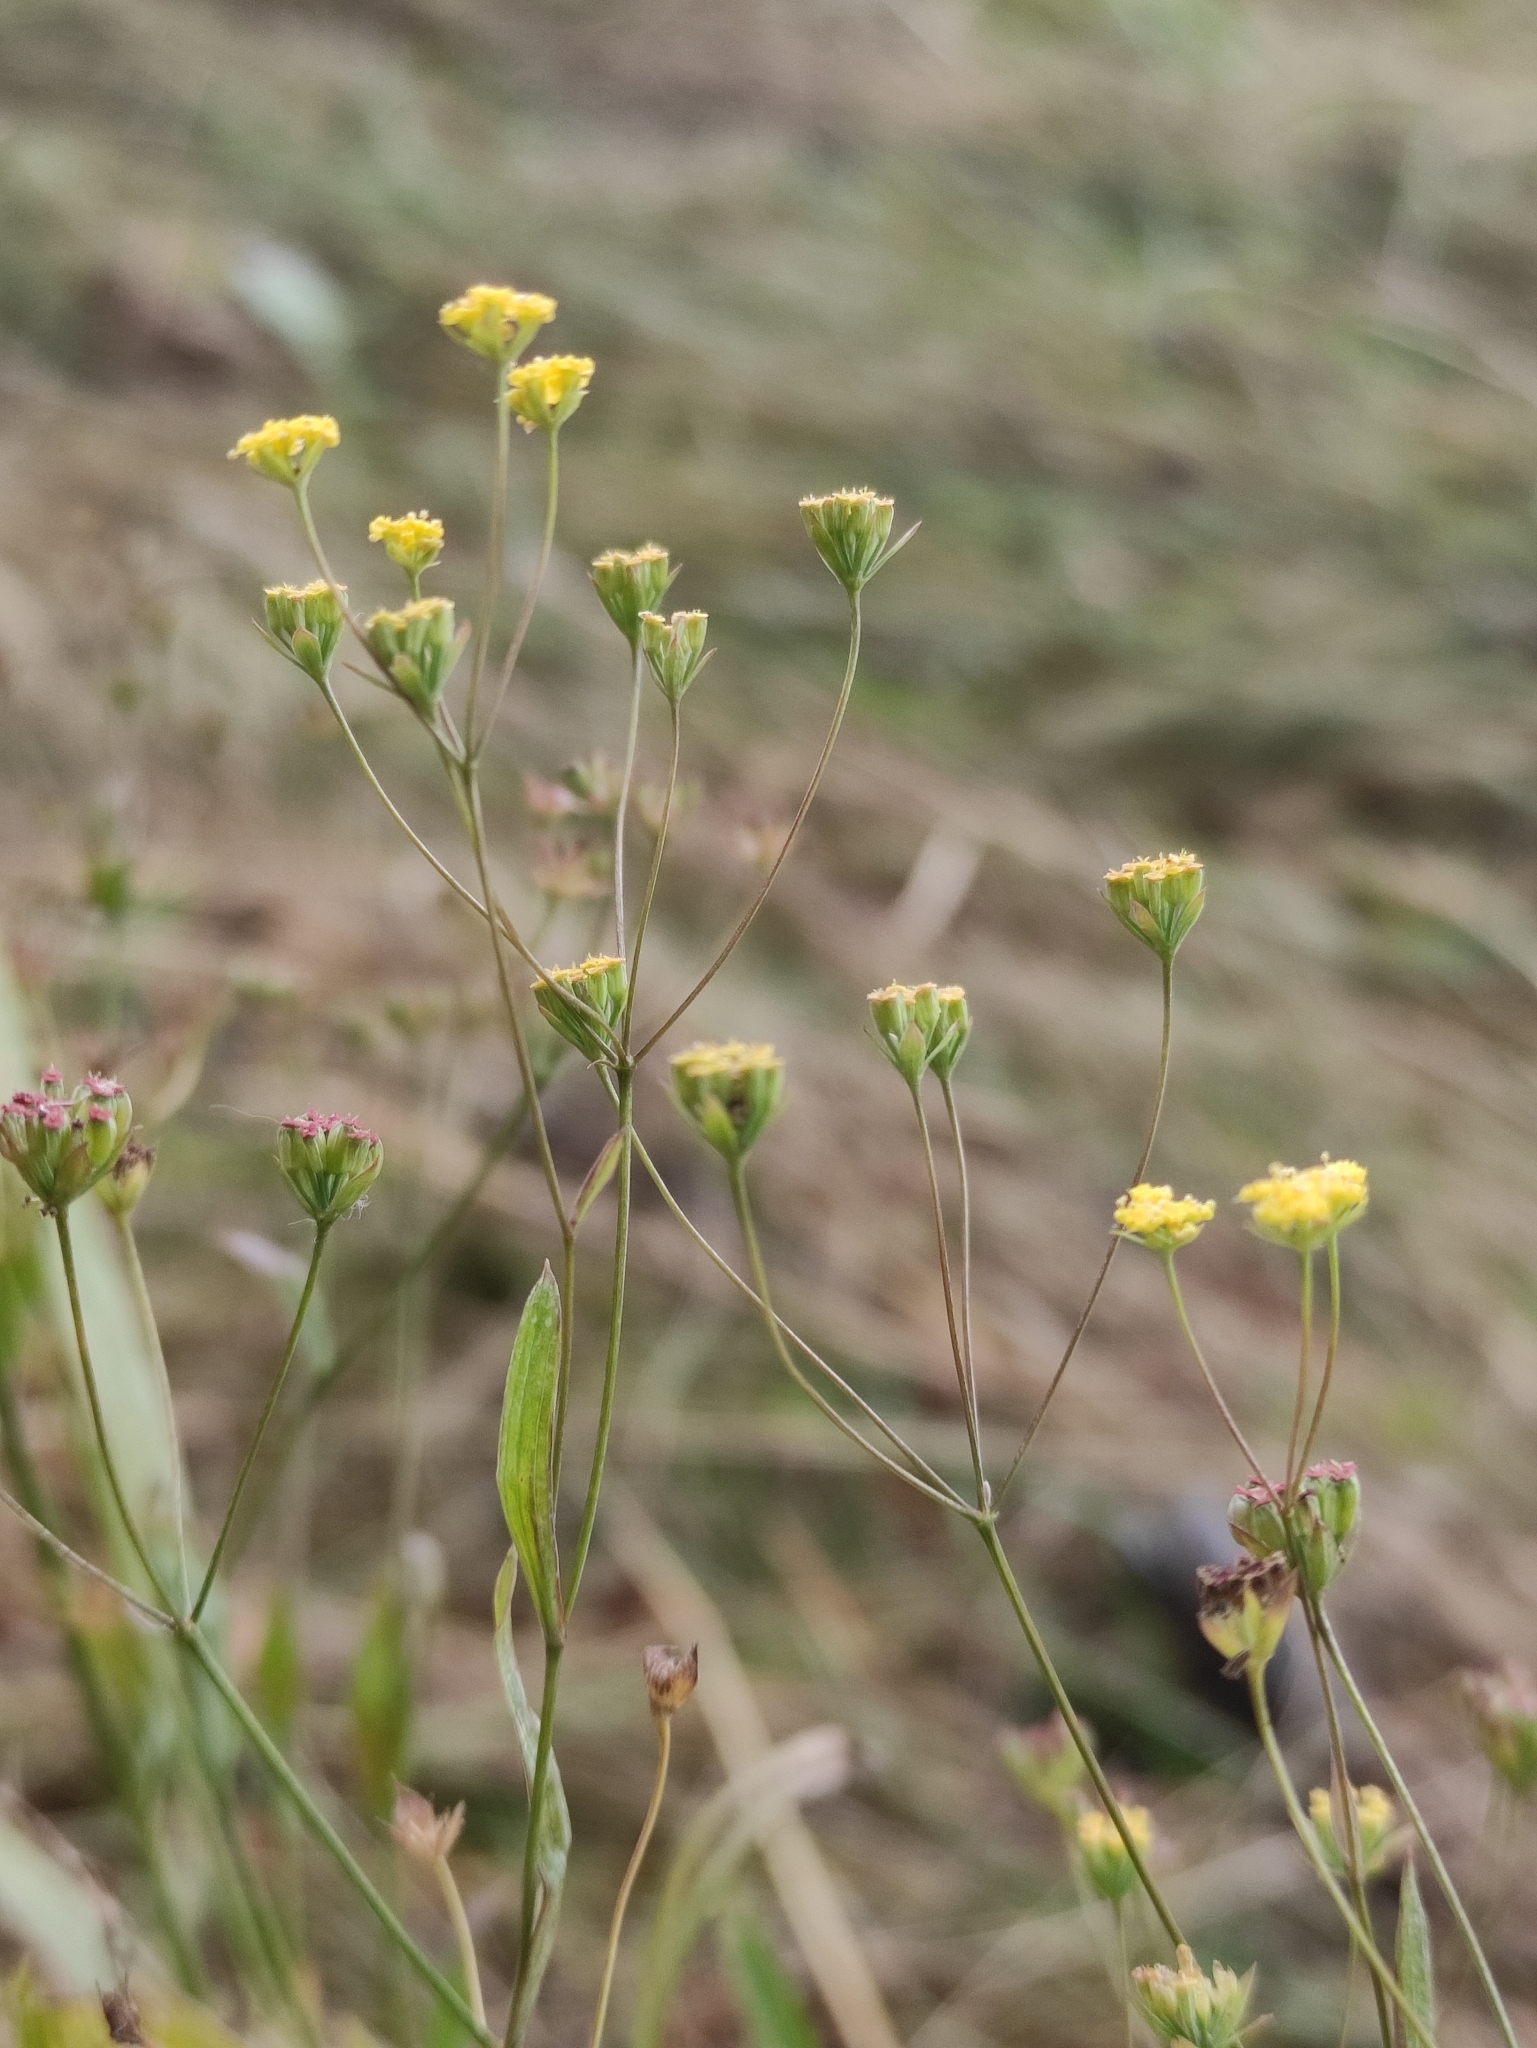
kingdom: Plantae
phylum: Tracheophyta
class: Magnoliopsida
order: Apiales
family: Apiaceae
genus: Bupleurum
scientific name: Bupleurum scorzonerifolium
